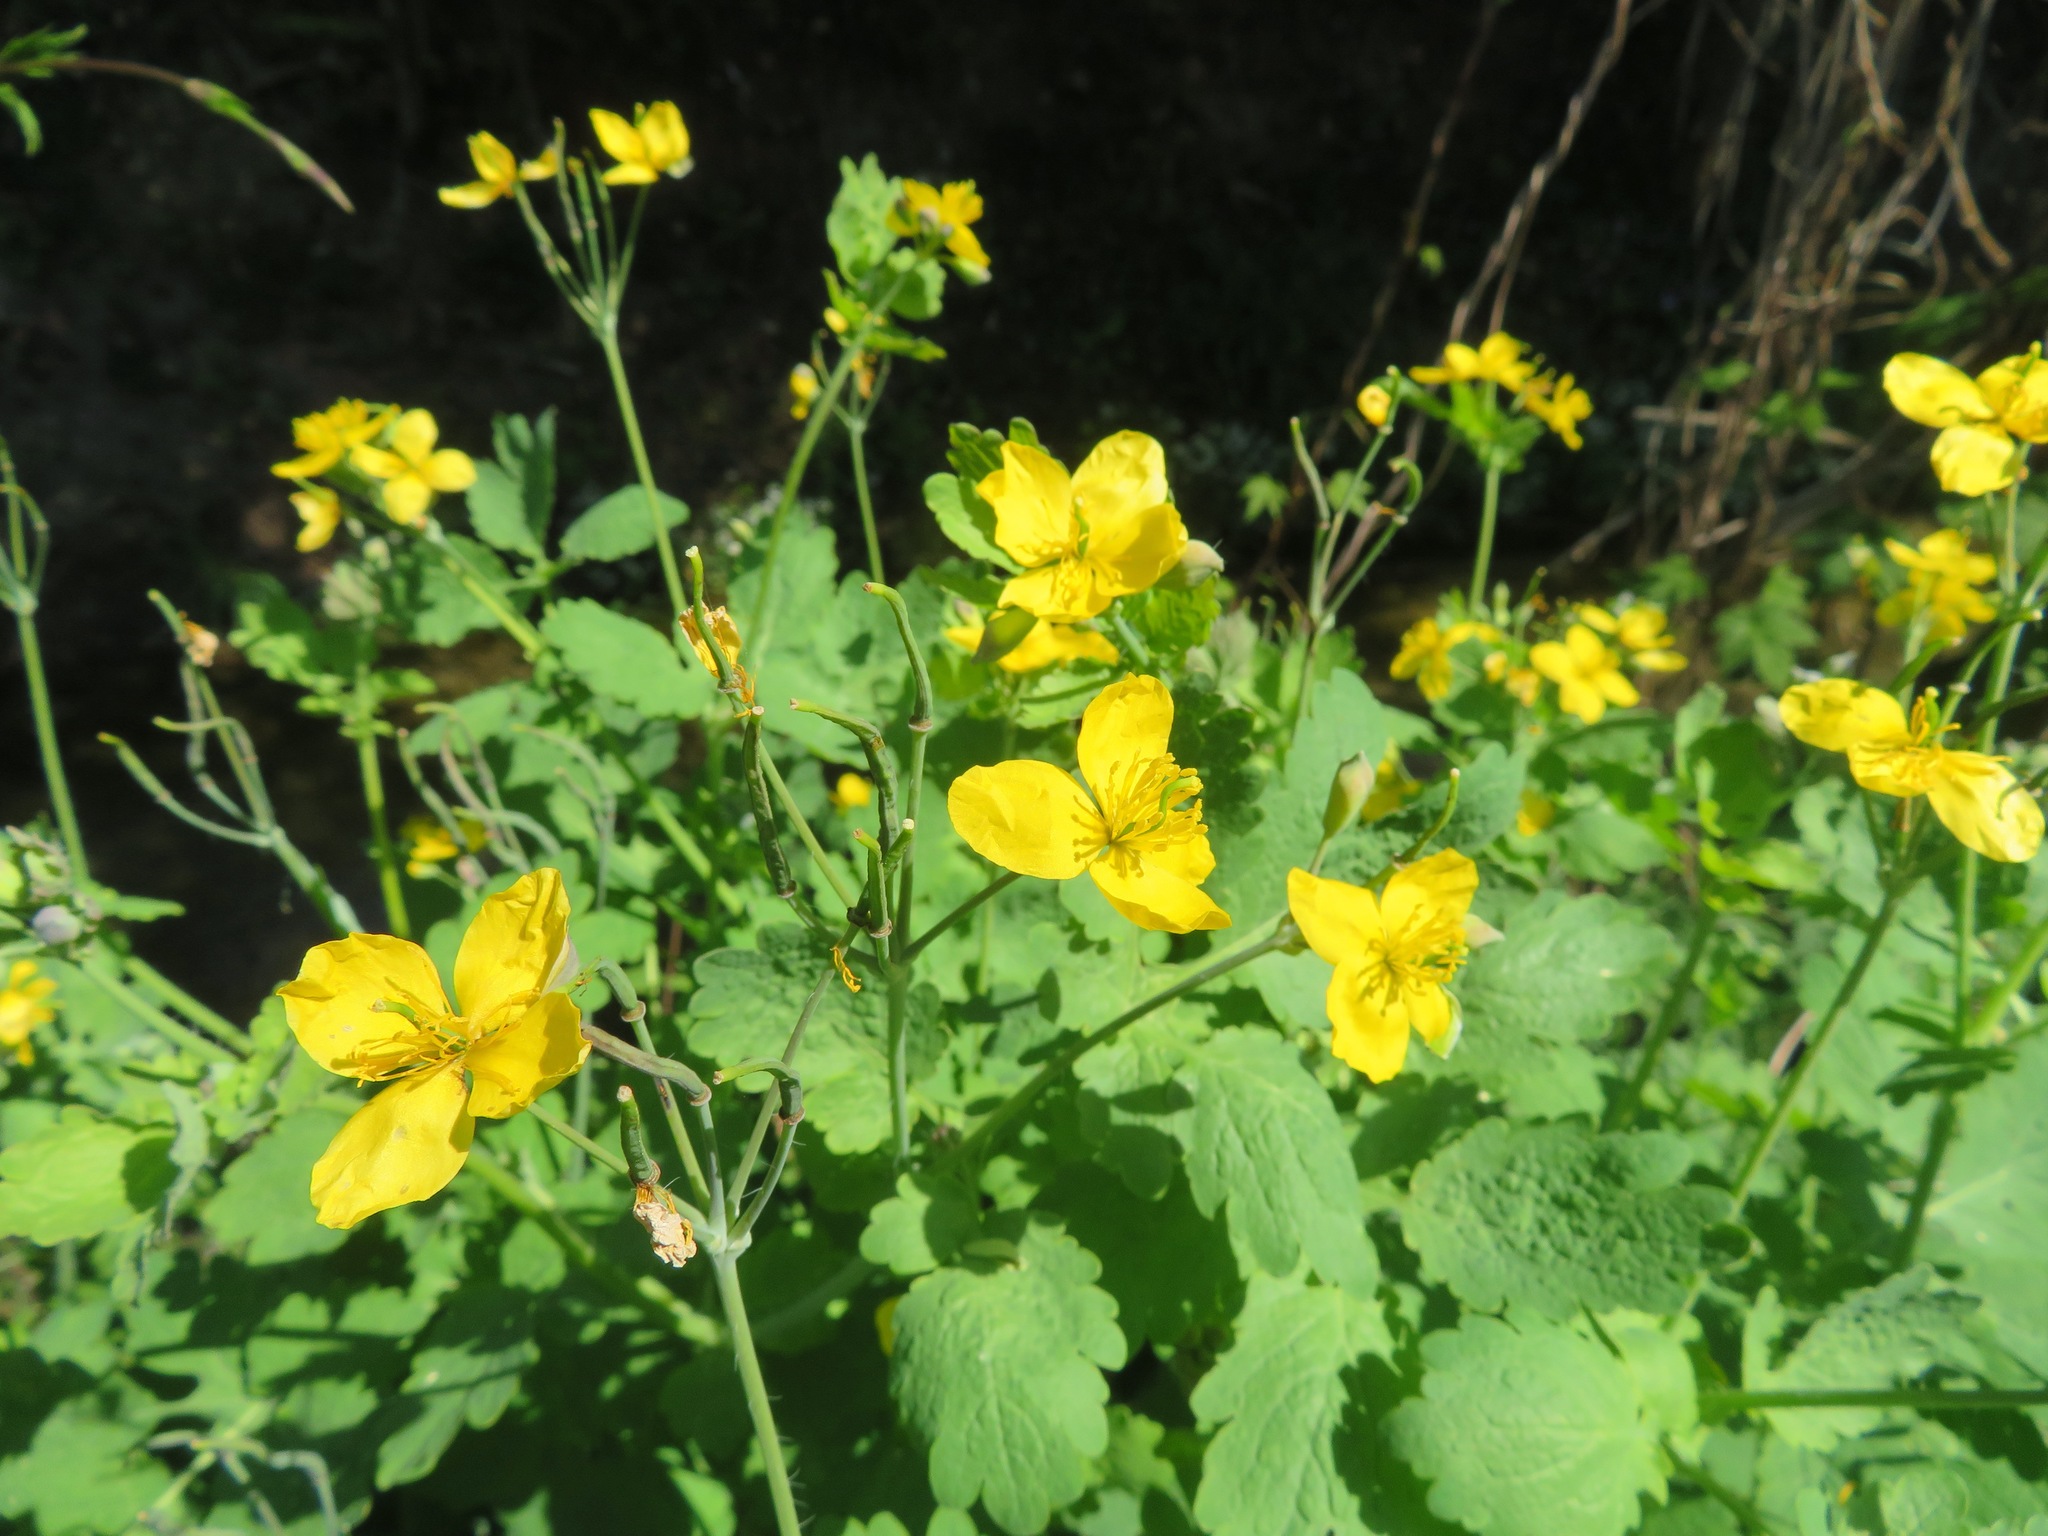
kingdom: Plantae
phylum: Tracheophyta
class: Magnoliopsida
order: Ranunculales
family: Papaveraceae
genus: Chelidonium
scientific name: Chelidonium majus
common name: Greater celandine
